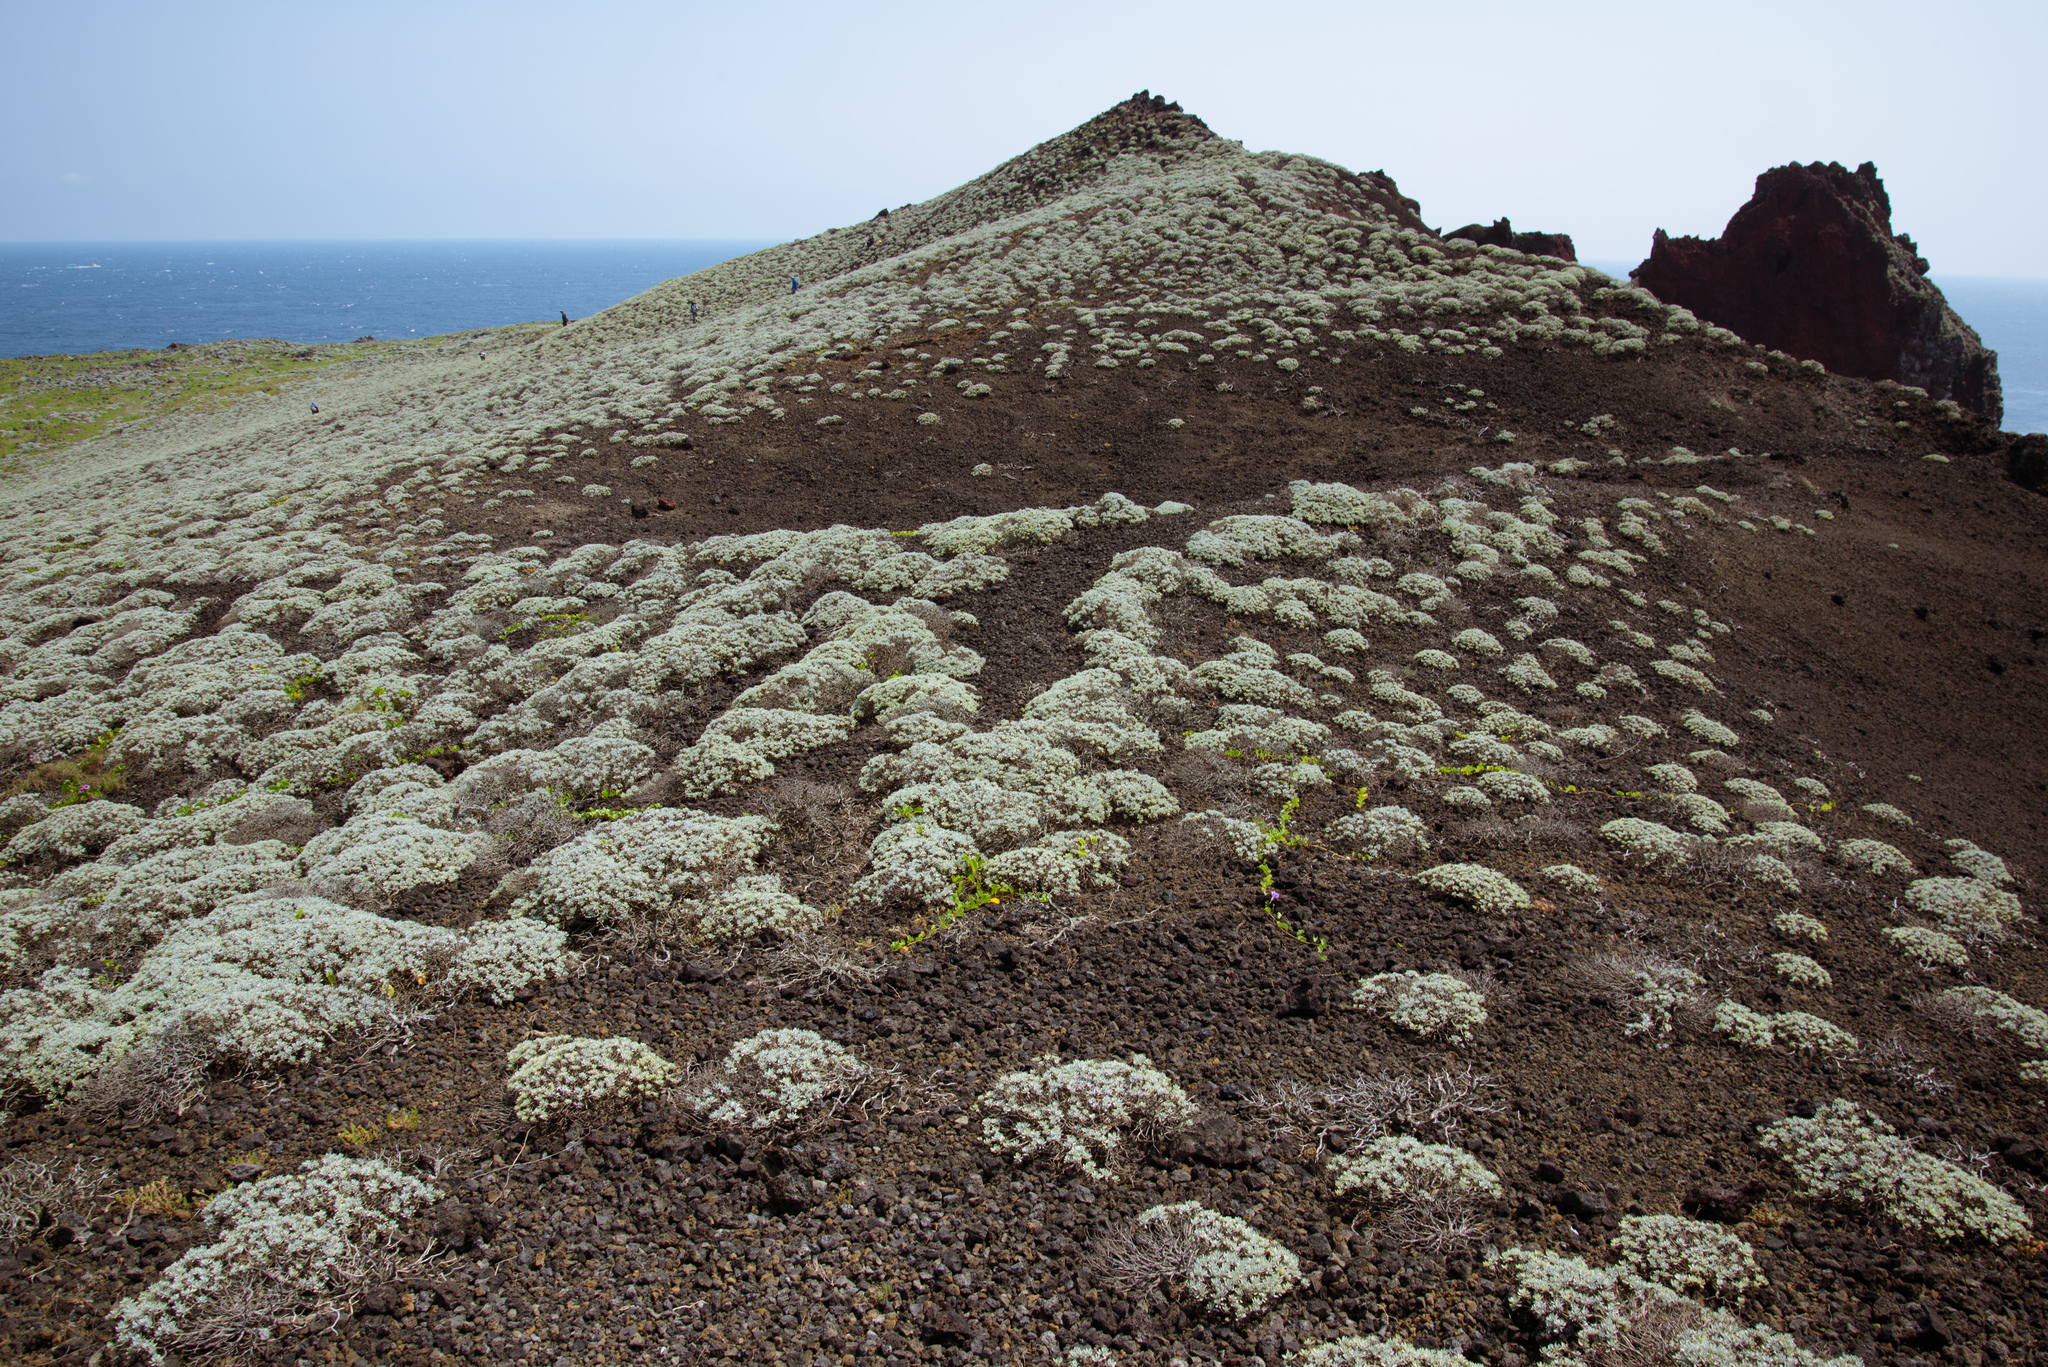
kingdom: Plantae
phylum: Tracheophyta
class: Magnoliopsida
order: Asterales
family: Asteraceae
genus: Crossostephium
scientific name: Crossostephium chinense
